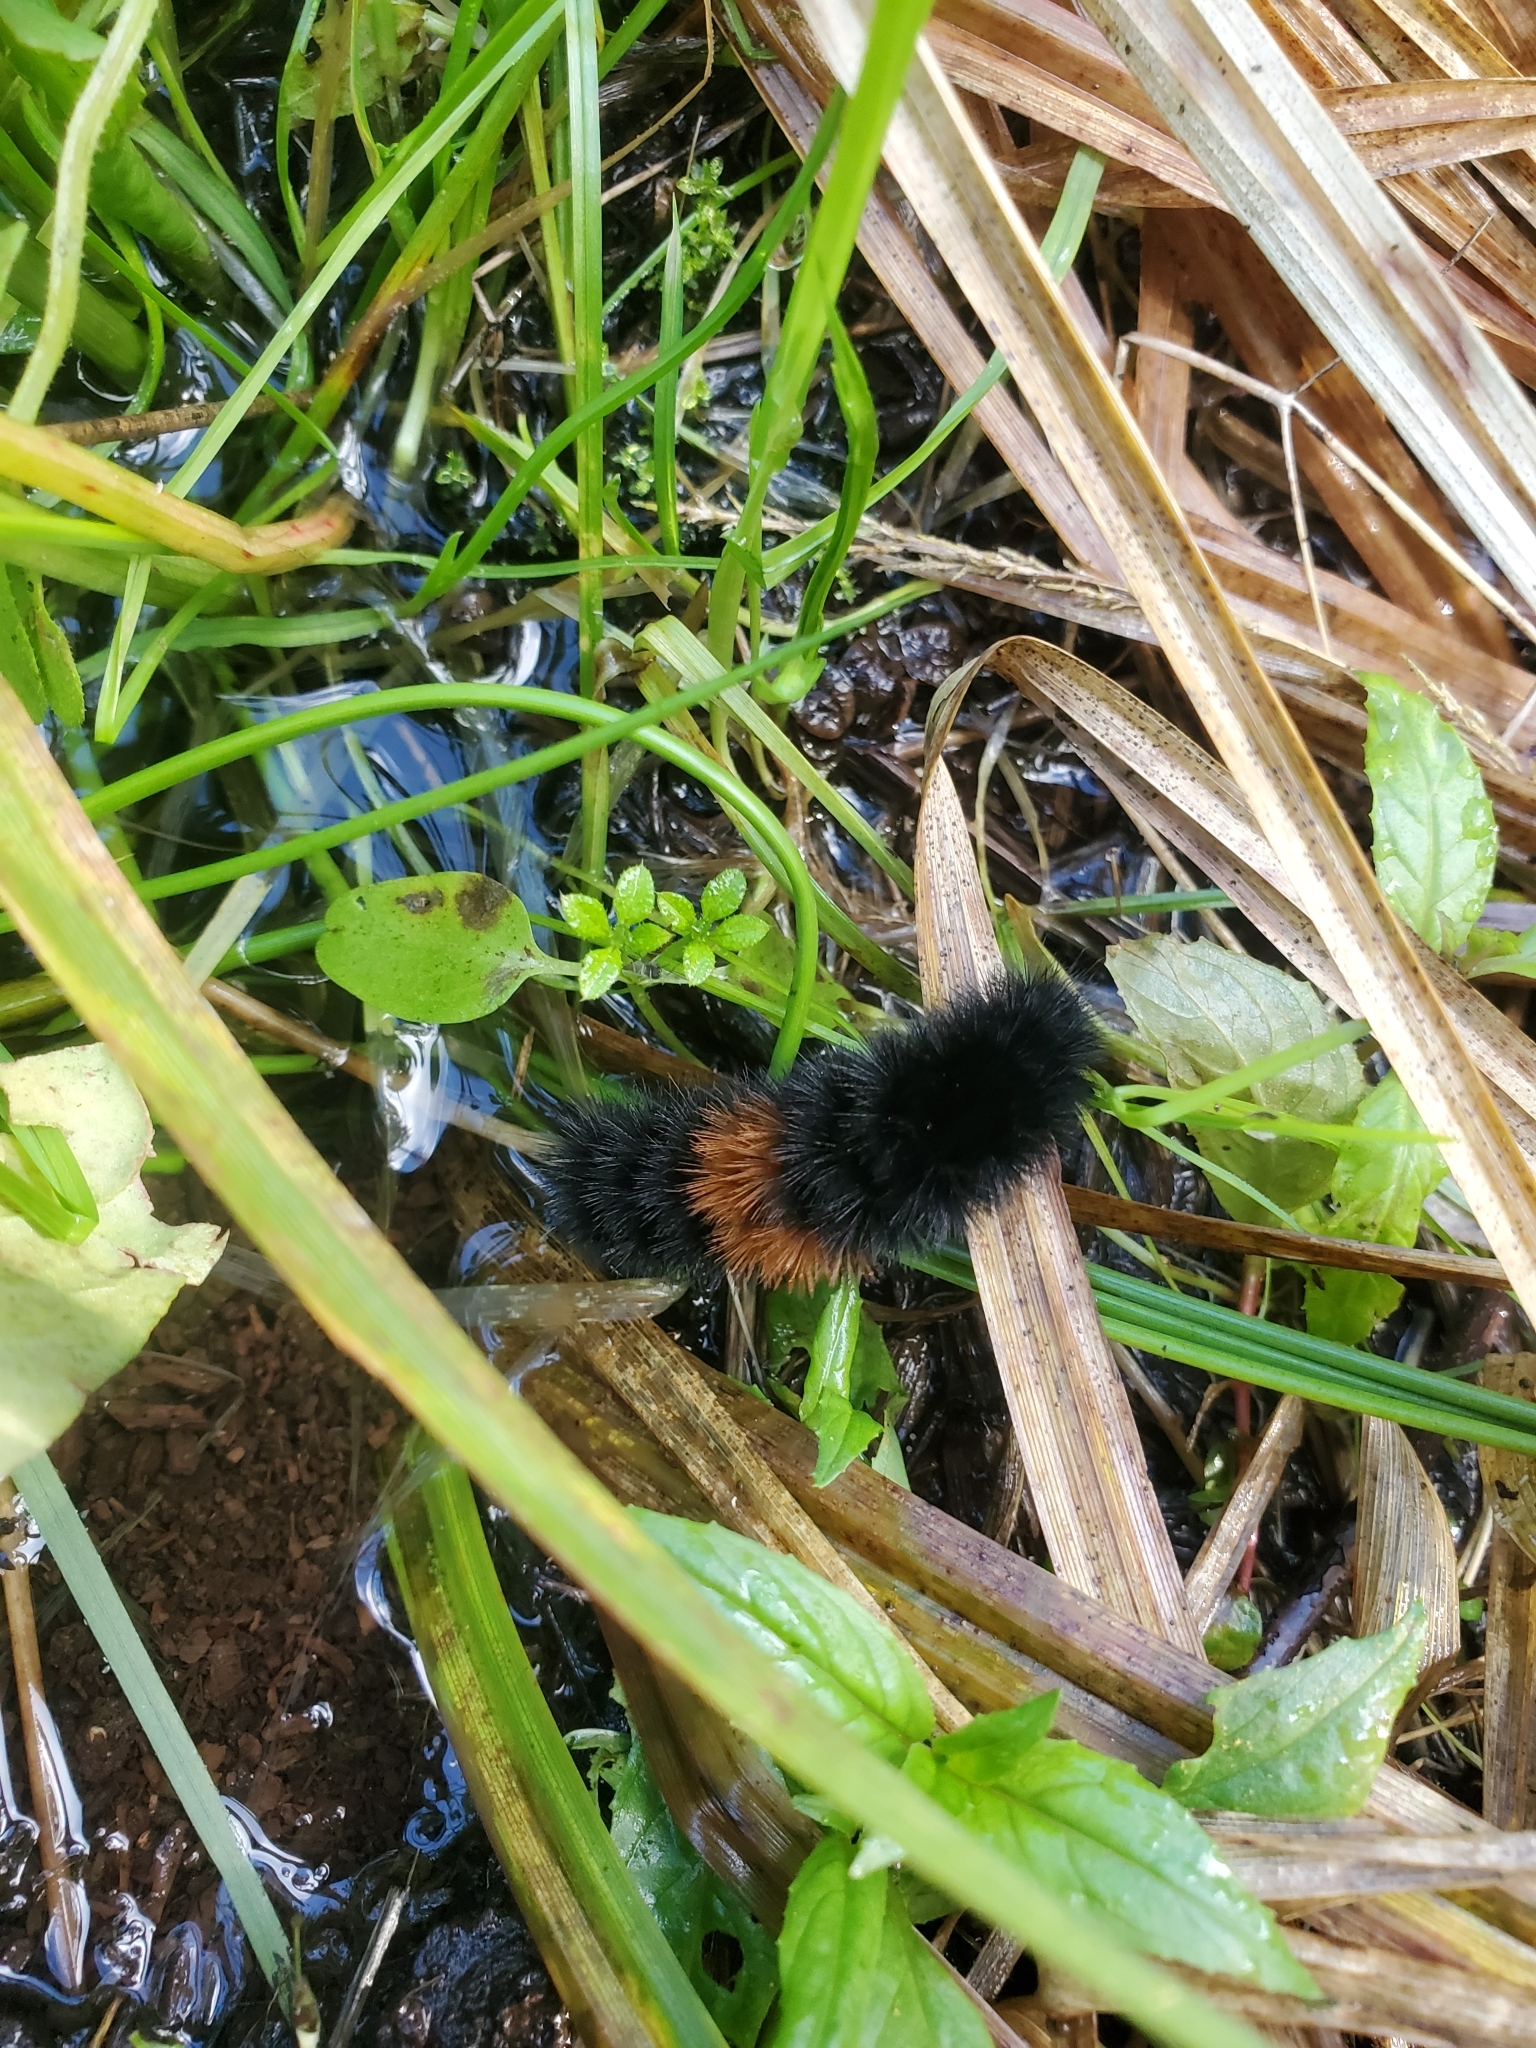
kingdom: Animalia
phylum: Arthropoda
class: Insecta
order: Lepidoptera
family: Erebidae
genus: Pyrrharctia
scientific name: Pyrrharctia isabella
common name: Isabella tiger moth
